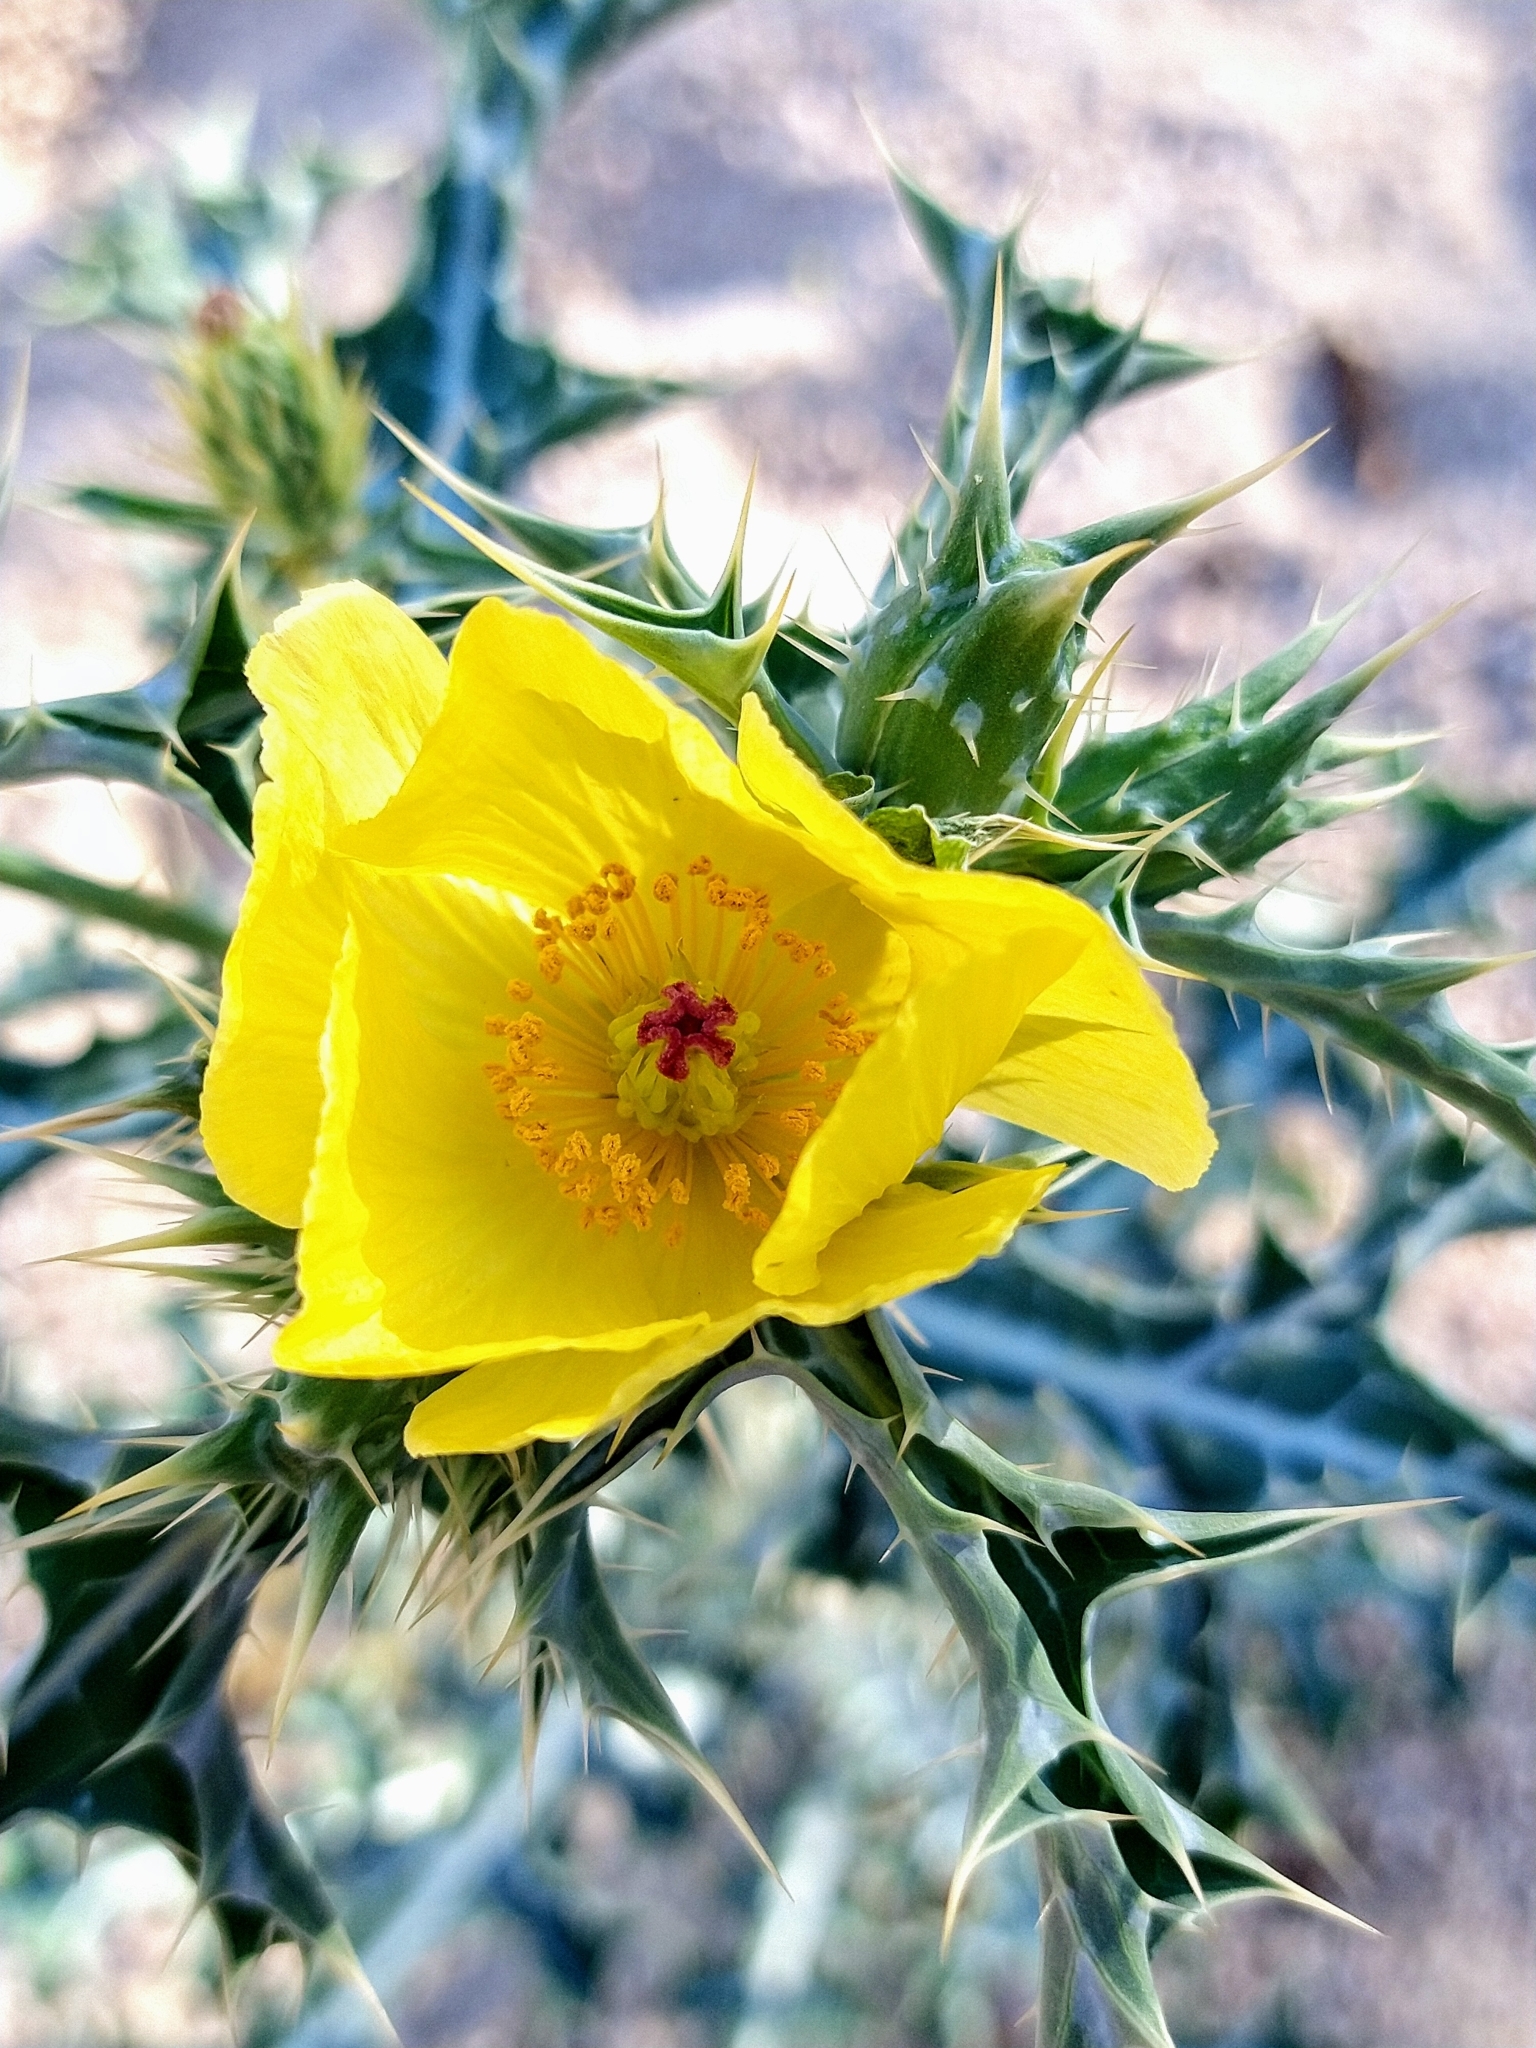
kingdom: Plantae
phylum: Tracheophyta
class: Magnoliopsida
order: Ranunculales
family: Papaveraceae
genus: Argemone
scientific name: Argemone mexicana
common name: Mexican poppy
